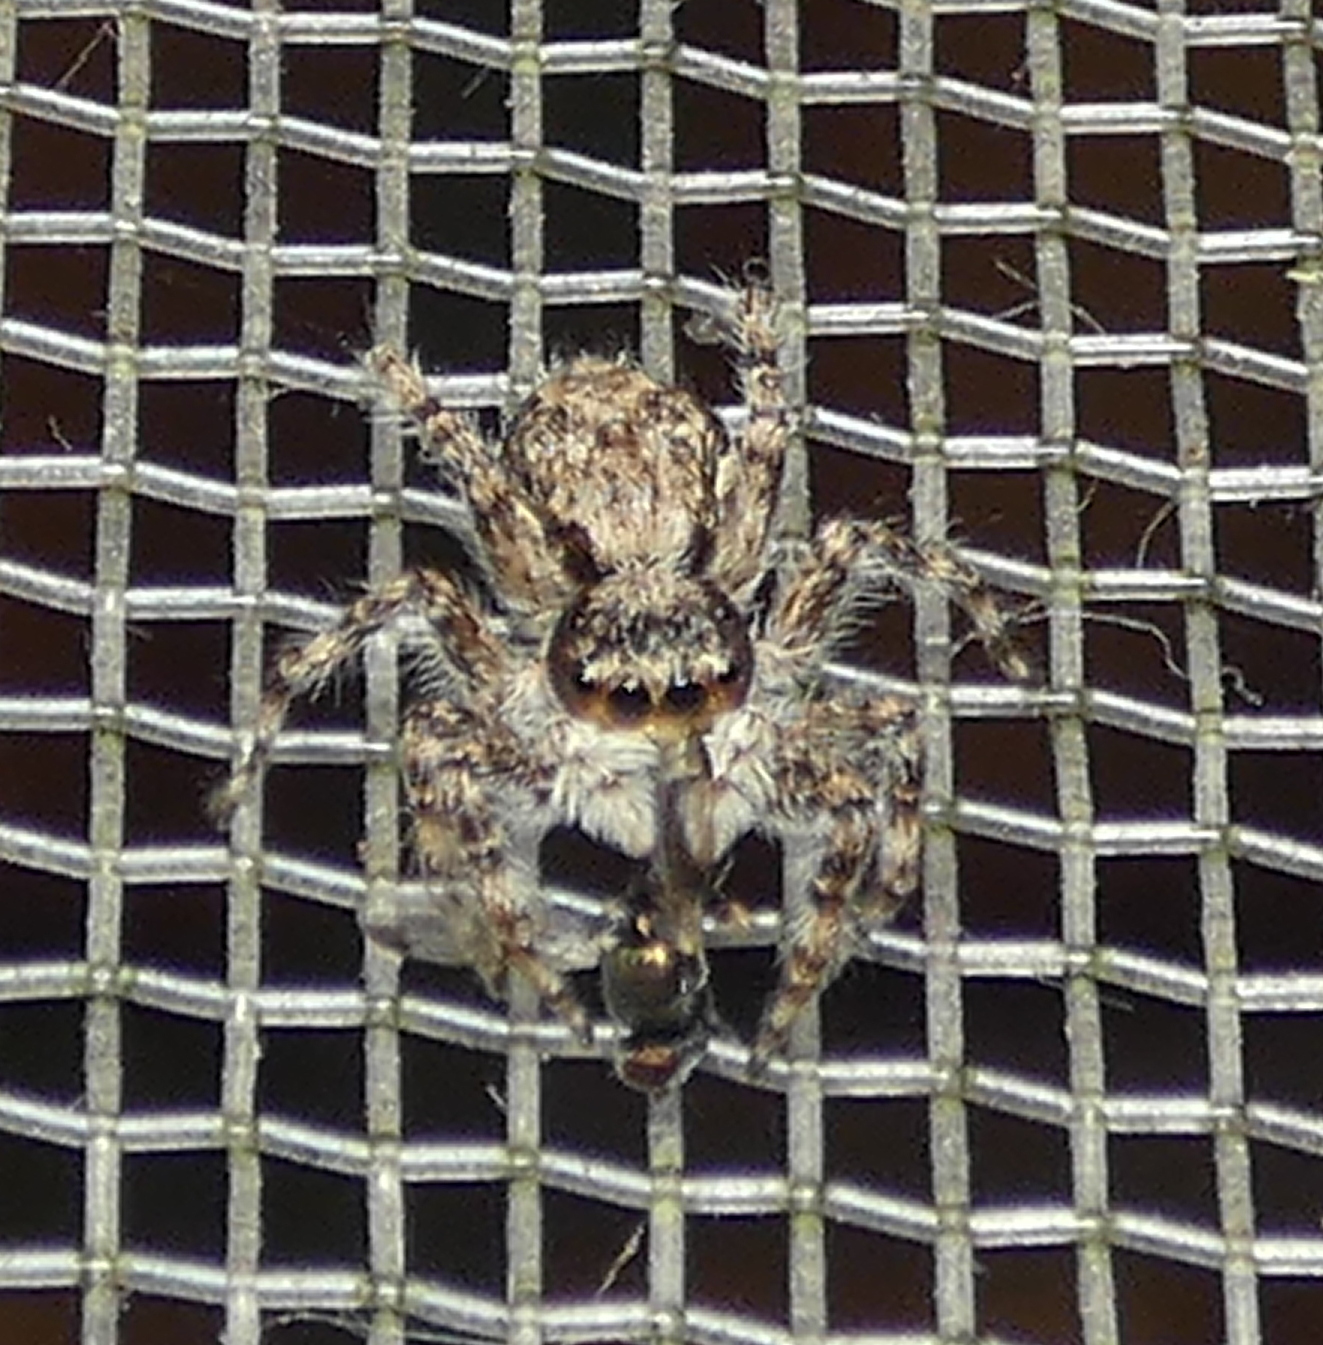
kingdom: Animalia
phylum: Arthropoda
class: Arachnida
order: Araneae
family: Salticidae
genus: Menemerus
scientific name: Menemerus bivittatus
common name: Gray wall jumper
